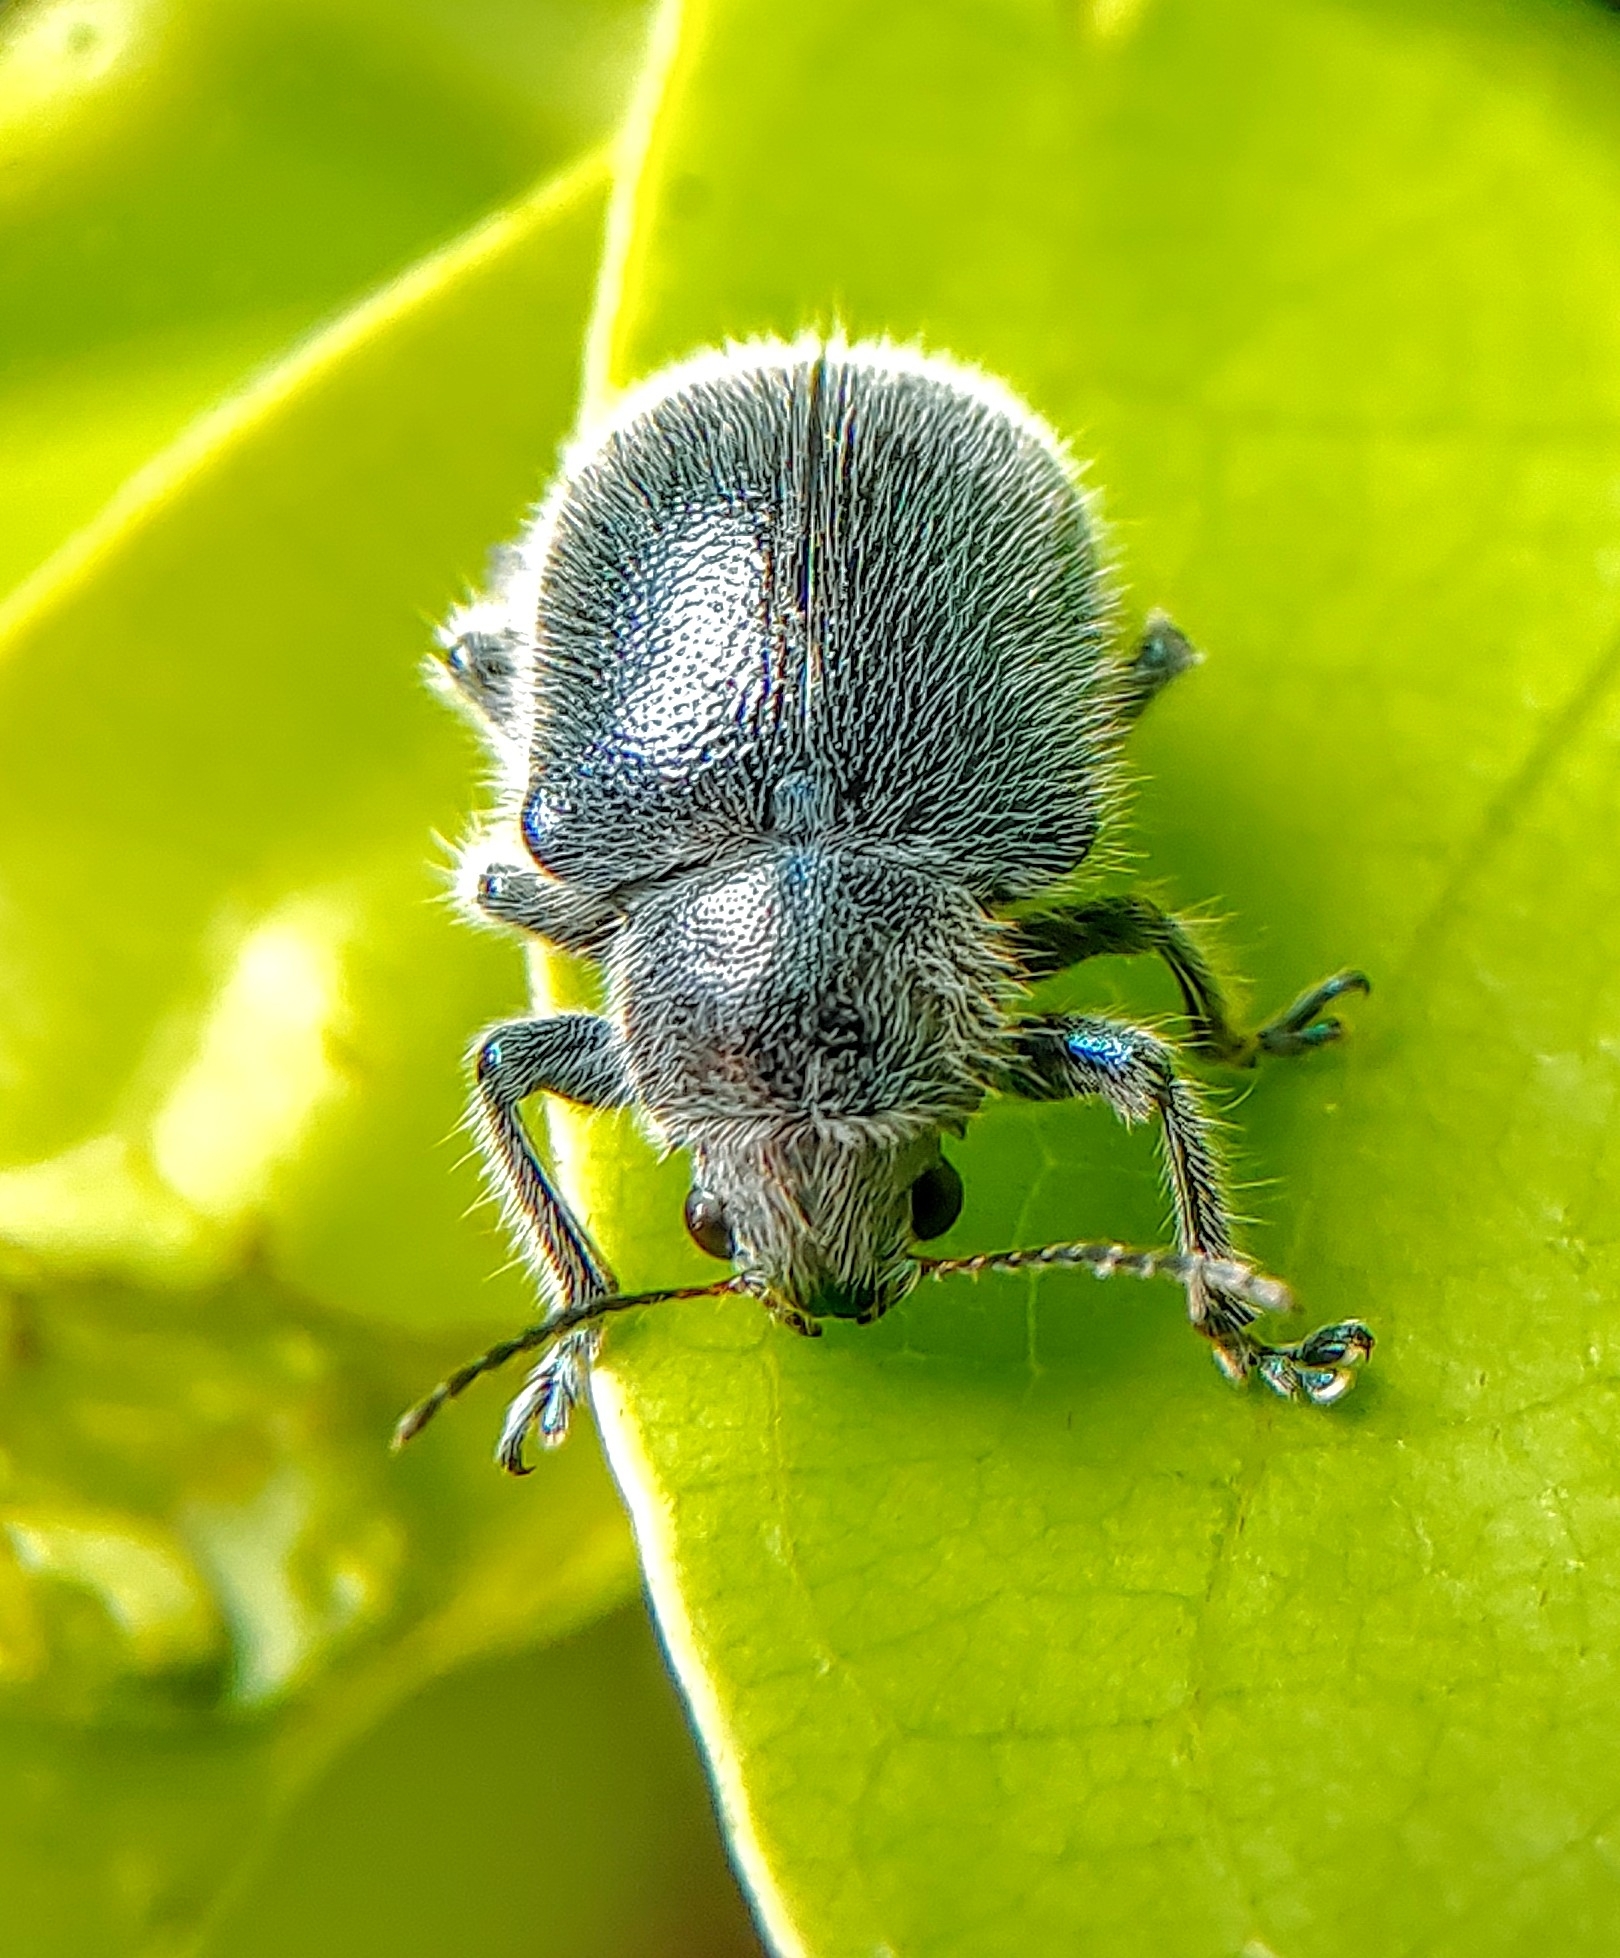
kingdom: Animalia
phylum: Arthropoda
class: Insecta
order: Coleoptera
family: Chrysomelidae
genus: Trichochrysea
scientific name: Trichochrysea
